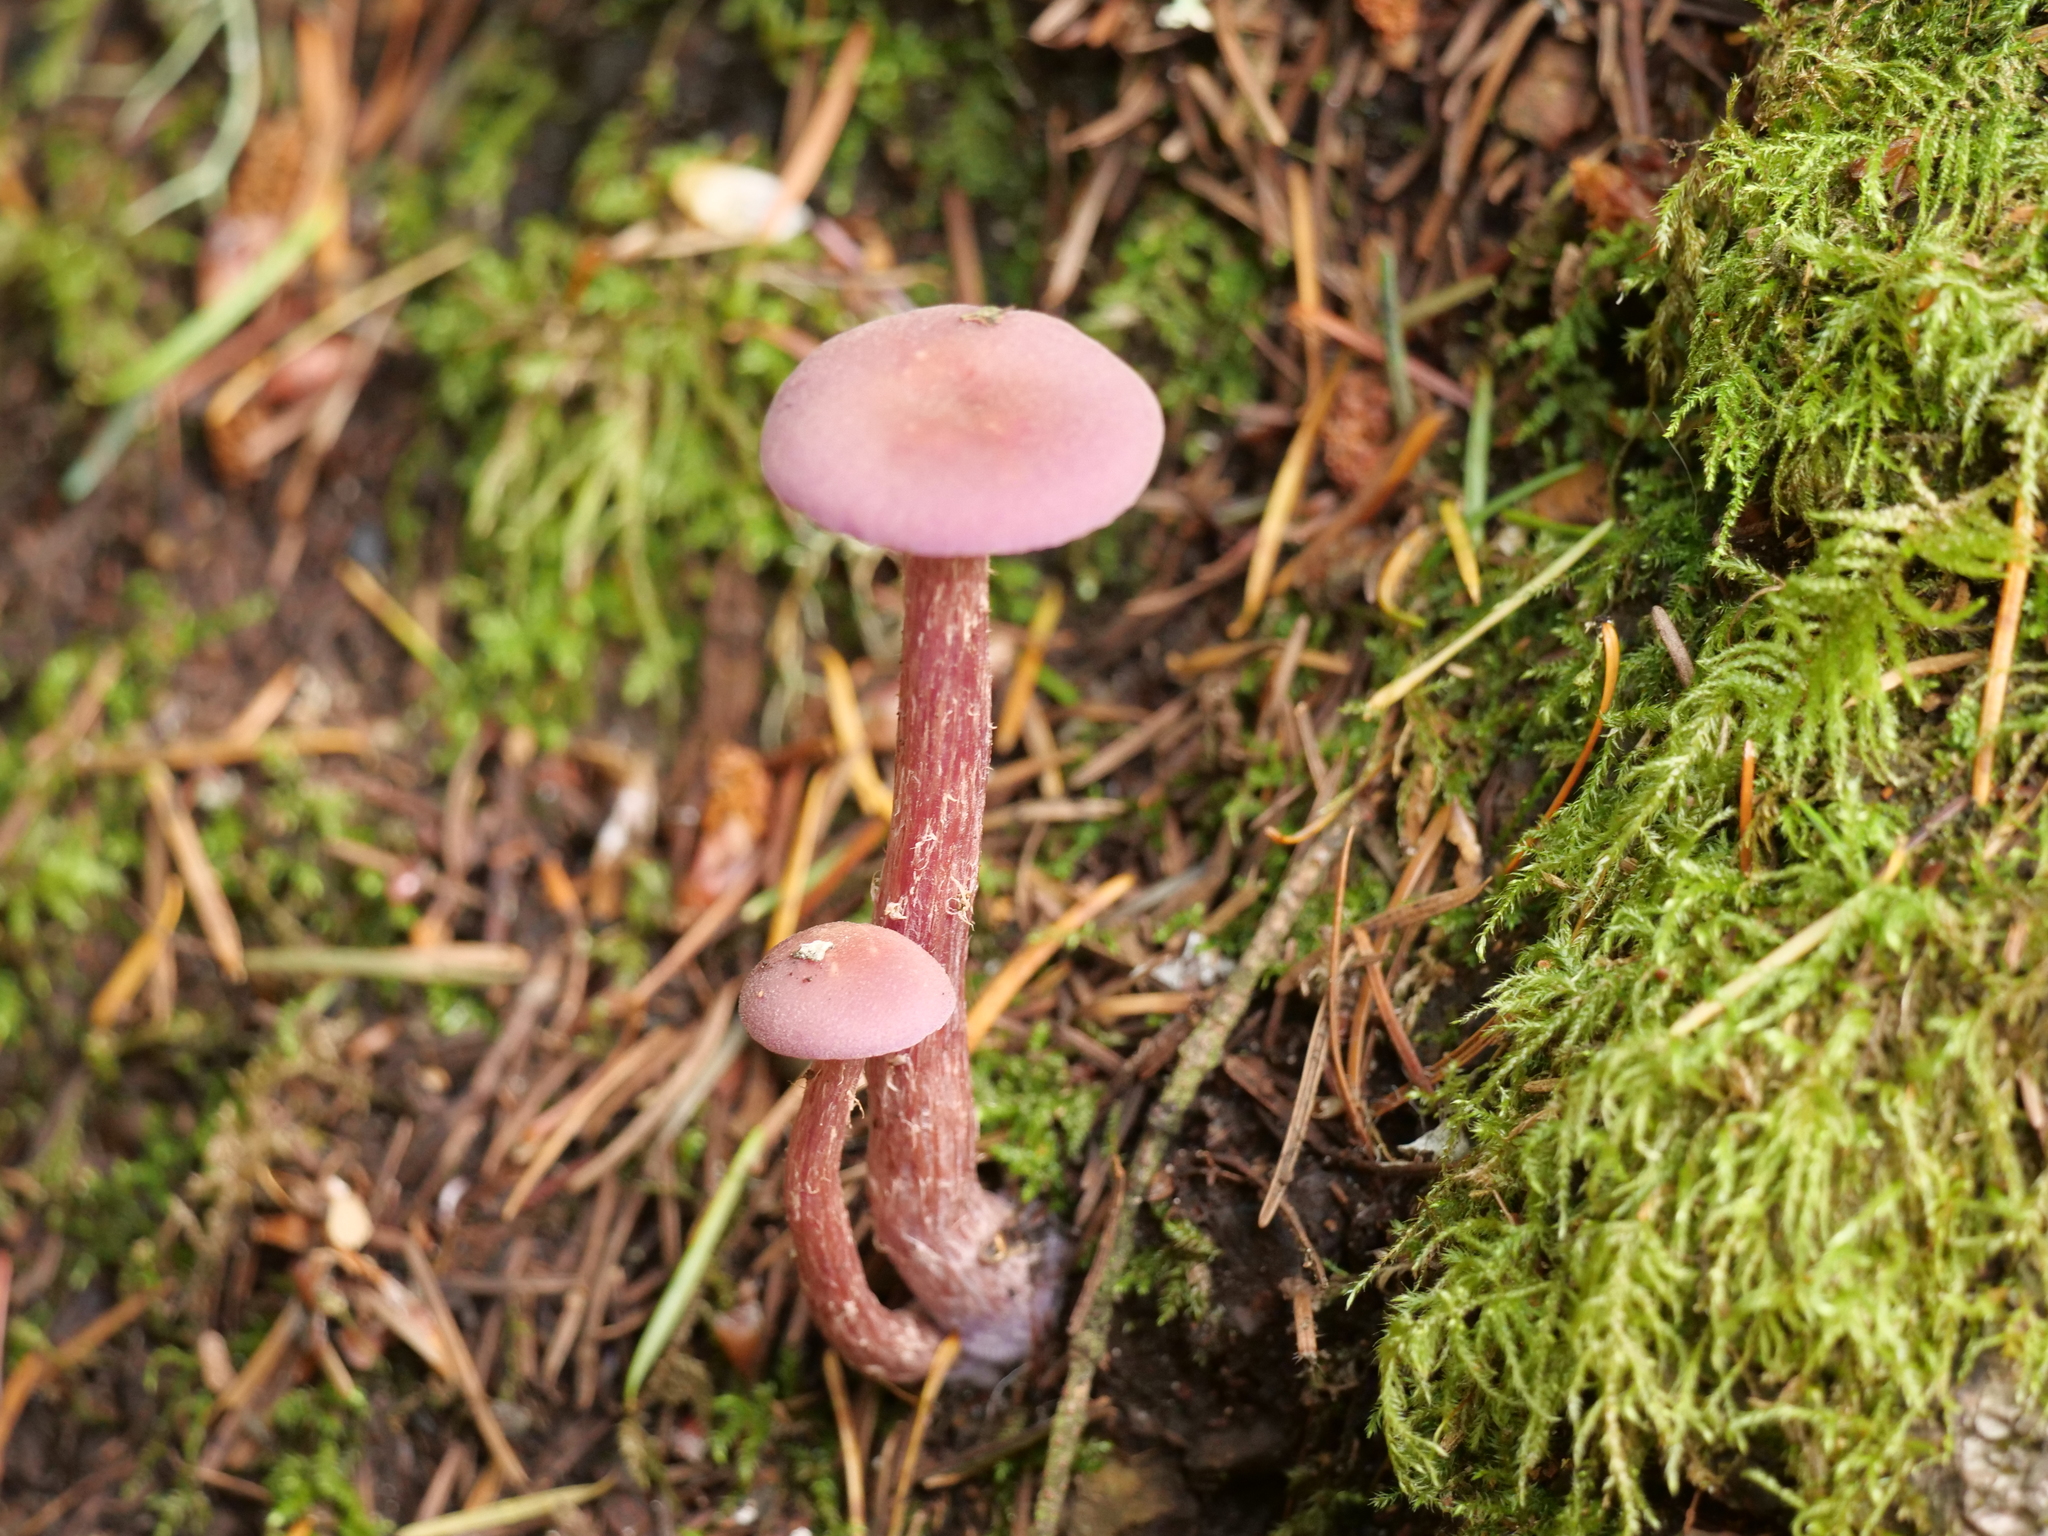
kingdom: Fungi
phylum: Basidiomycota
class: Agaricomycetes
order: Agaricales
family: Hydnangiaceae
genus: Laccaria
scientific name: Laccaria amethysteo-occidentalis
